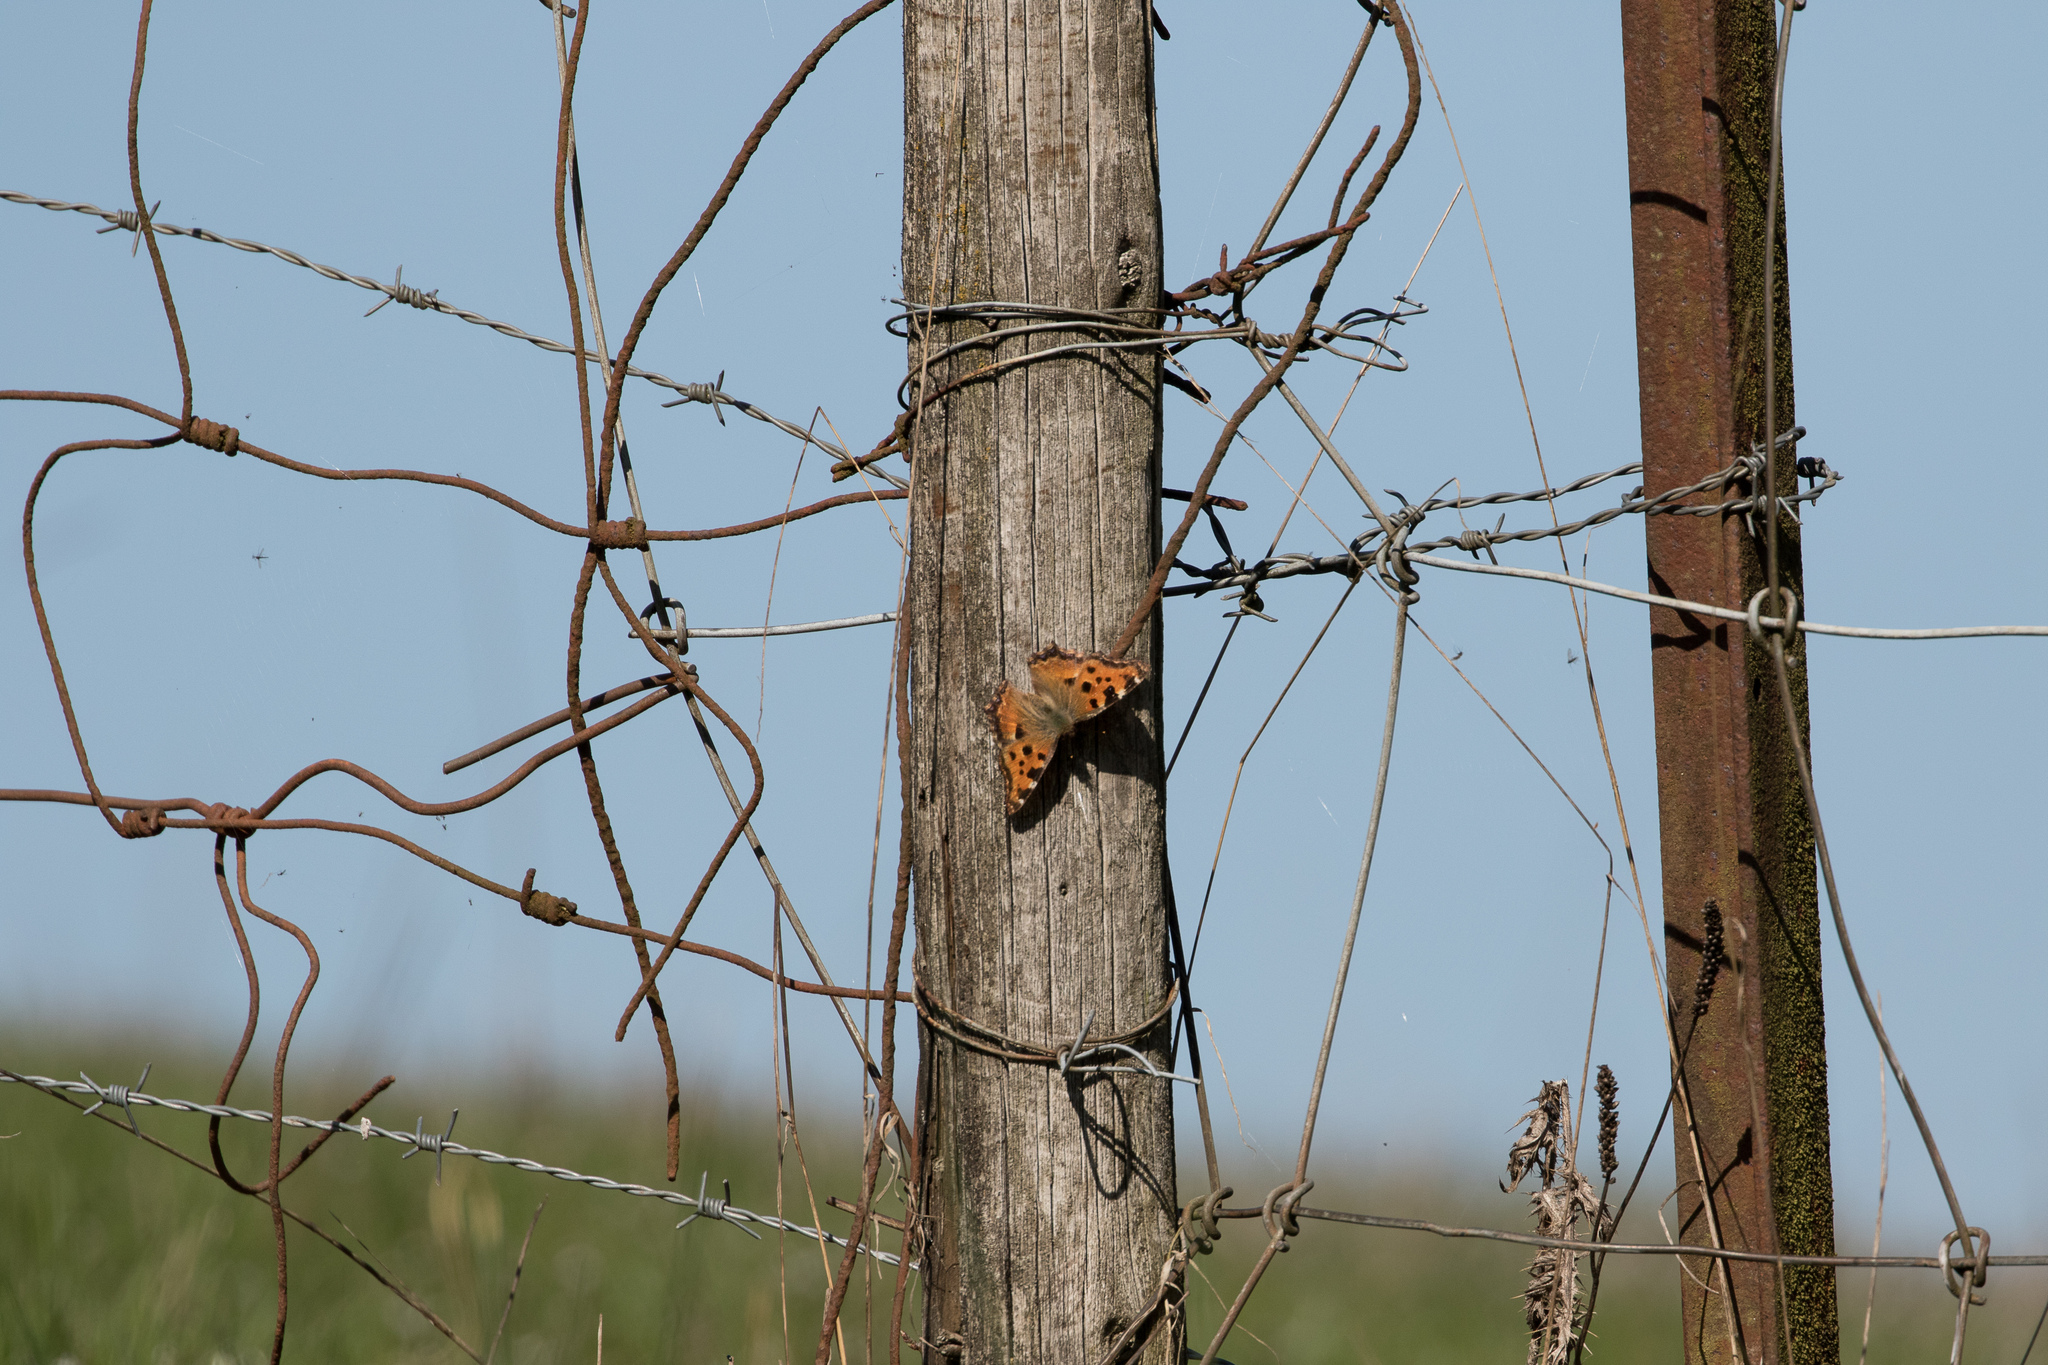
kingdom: Animalia
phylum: Arthropoda
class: Insecta
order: Lepidoptera
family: Nymphalidae
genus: Nymphalis
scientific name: Nymphalis polychloros
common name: Large tortoiseshell
